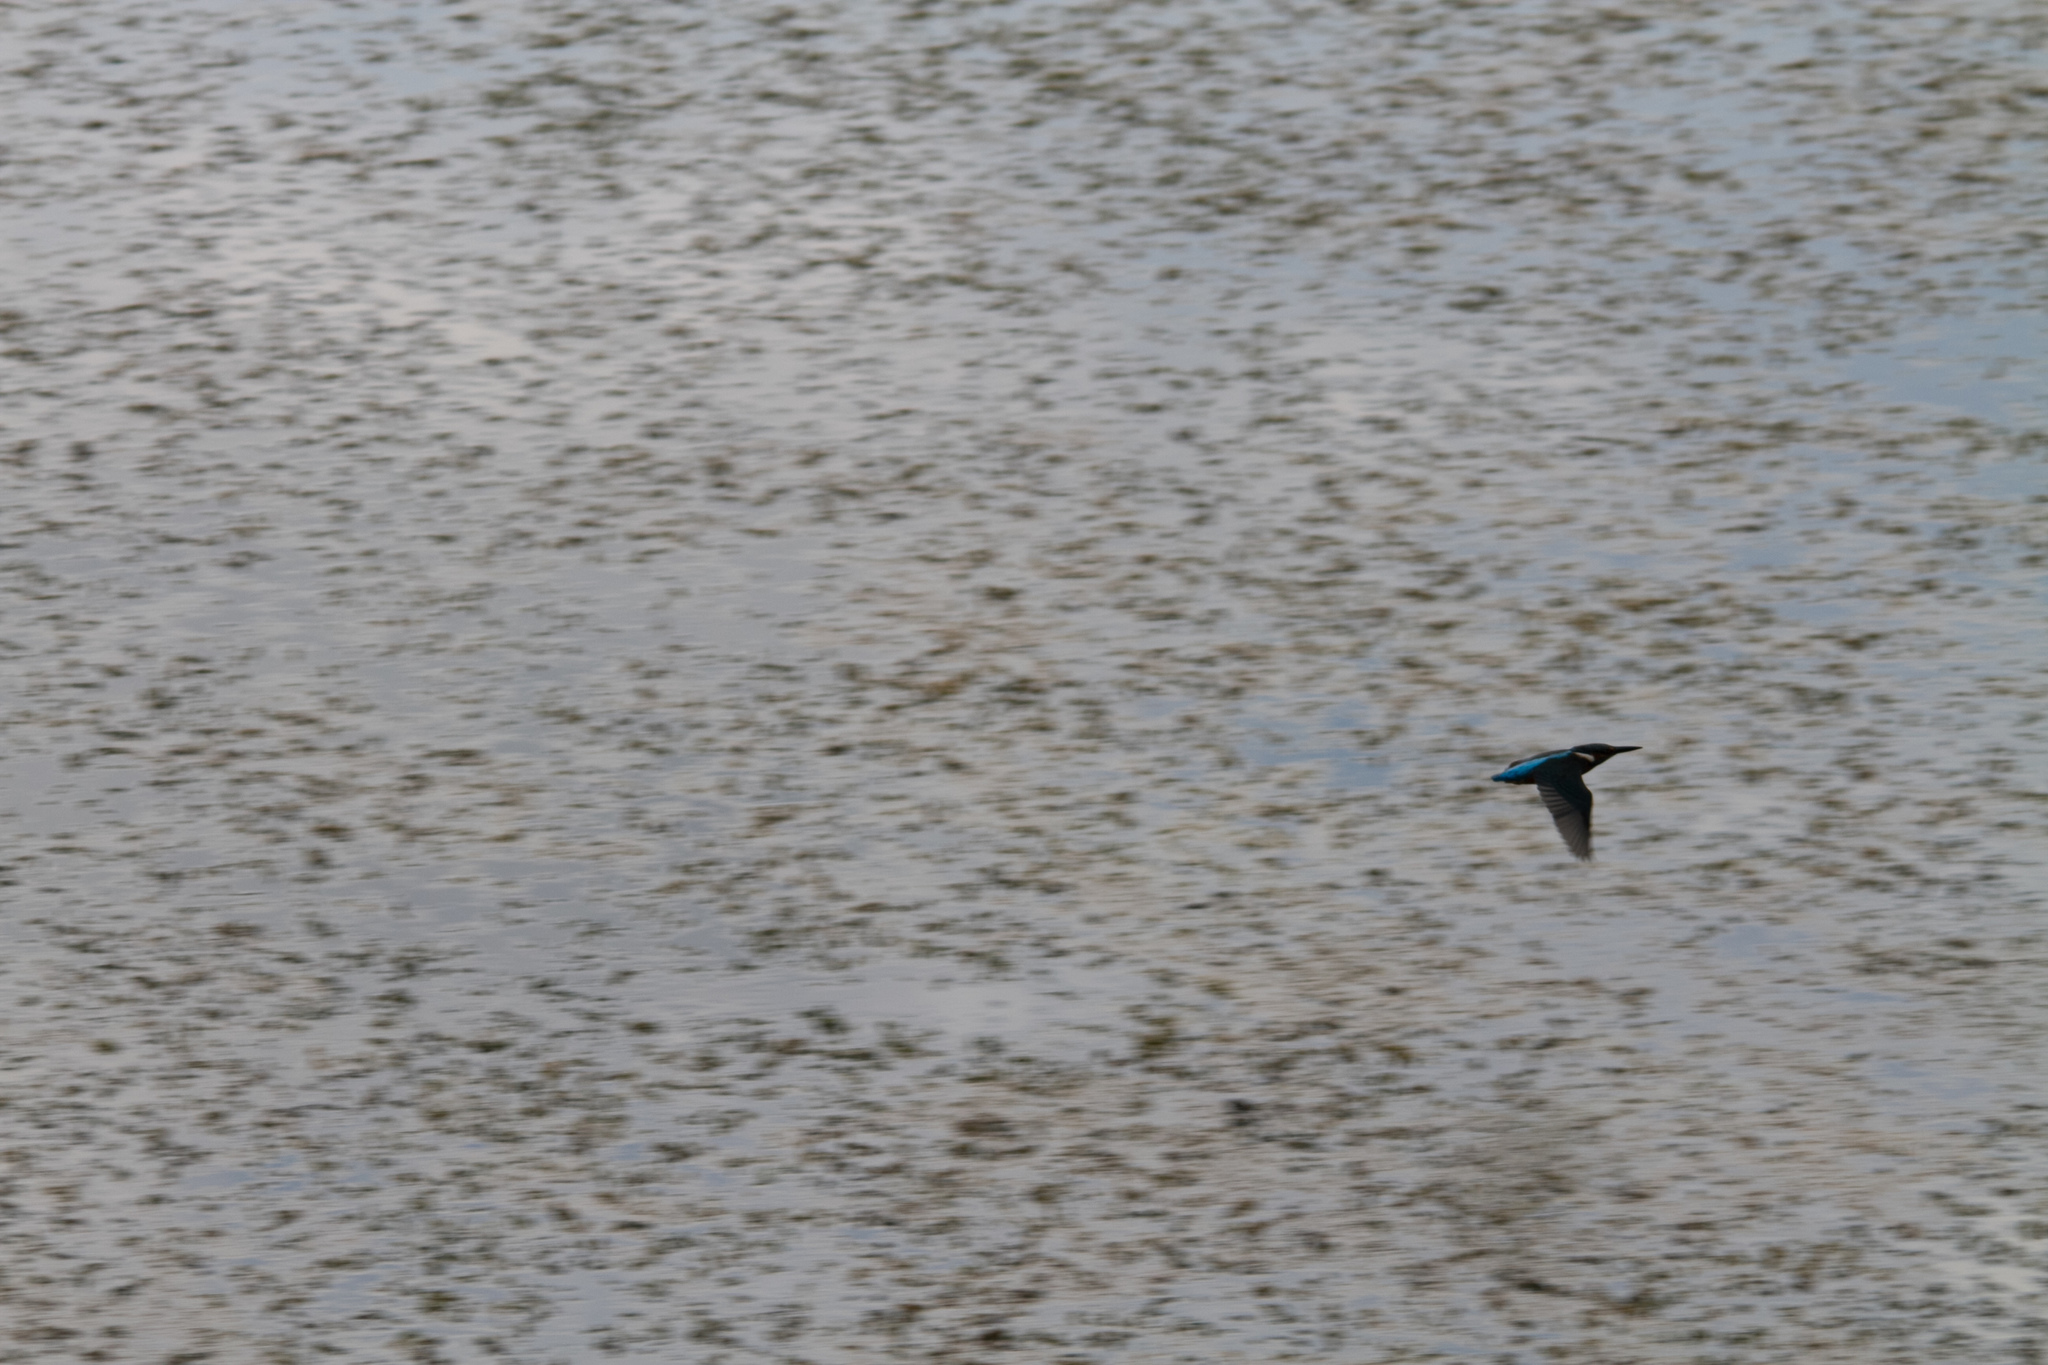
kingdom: Animalia
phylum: Chordata
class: Aves
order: Coraciiformes
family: Alcedinidae
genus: Alcedo
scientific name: Alcedo atthis
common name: Common kingfisher
